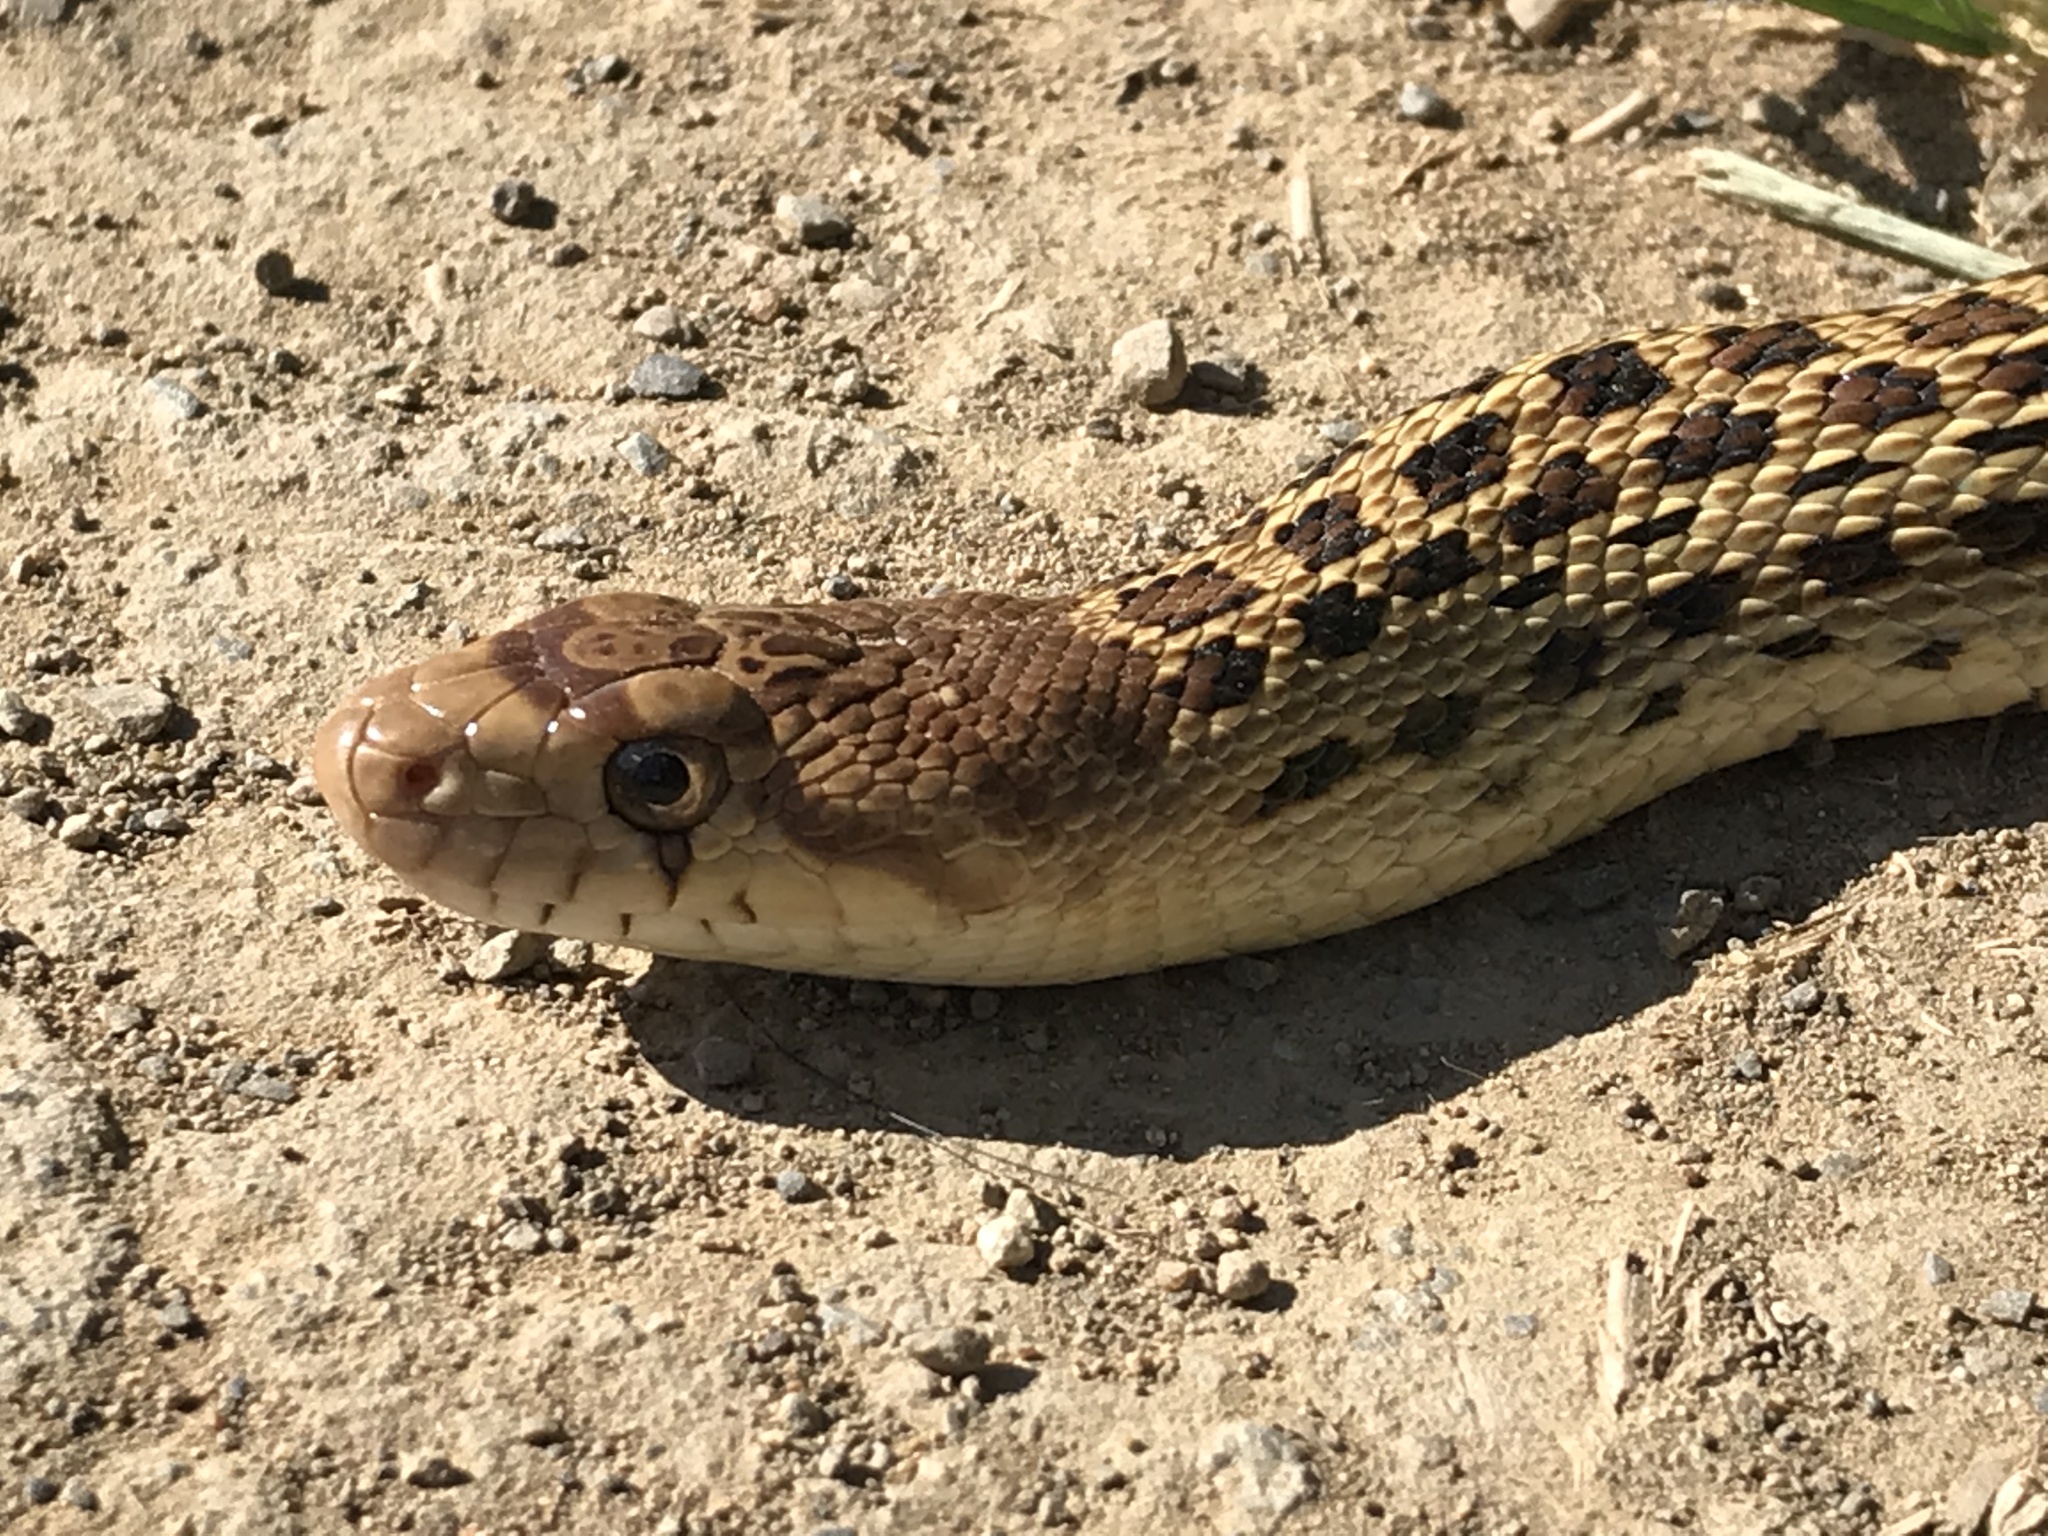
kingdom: Animalia
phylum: Chordata
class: Squamata
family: Colubridae
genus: Pituophis
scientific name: Pituophis catenifer
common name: Gopher snake
